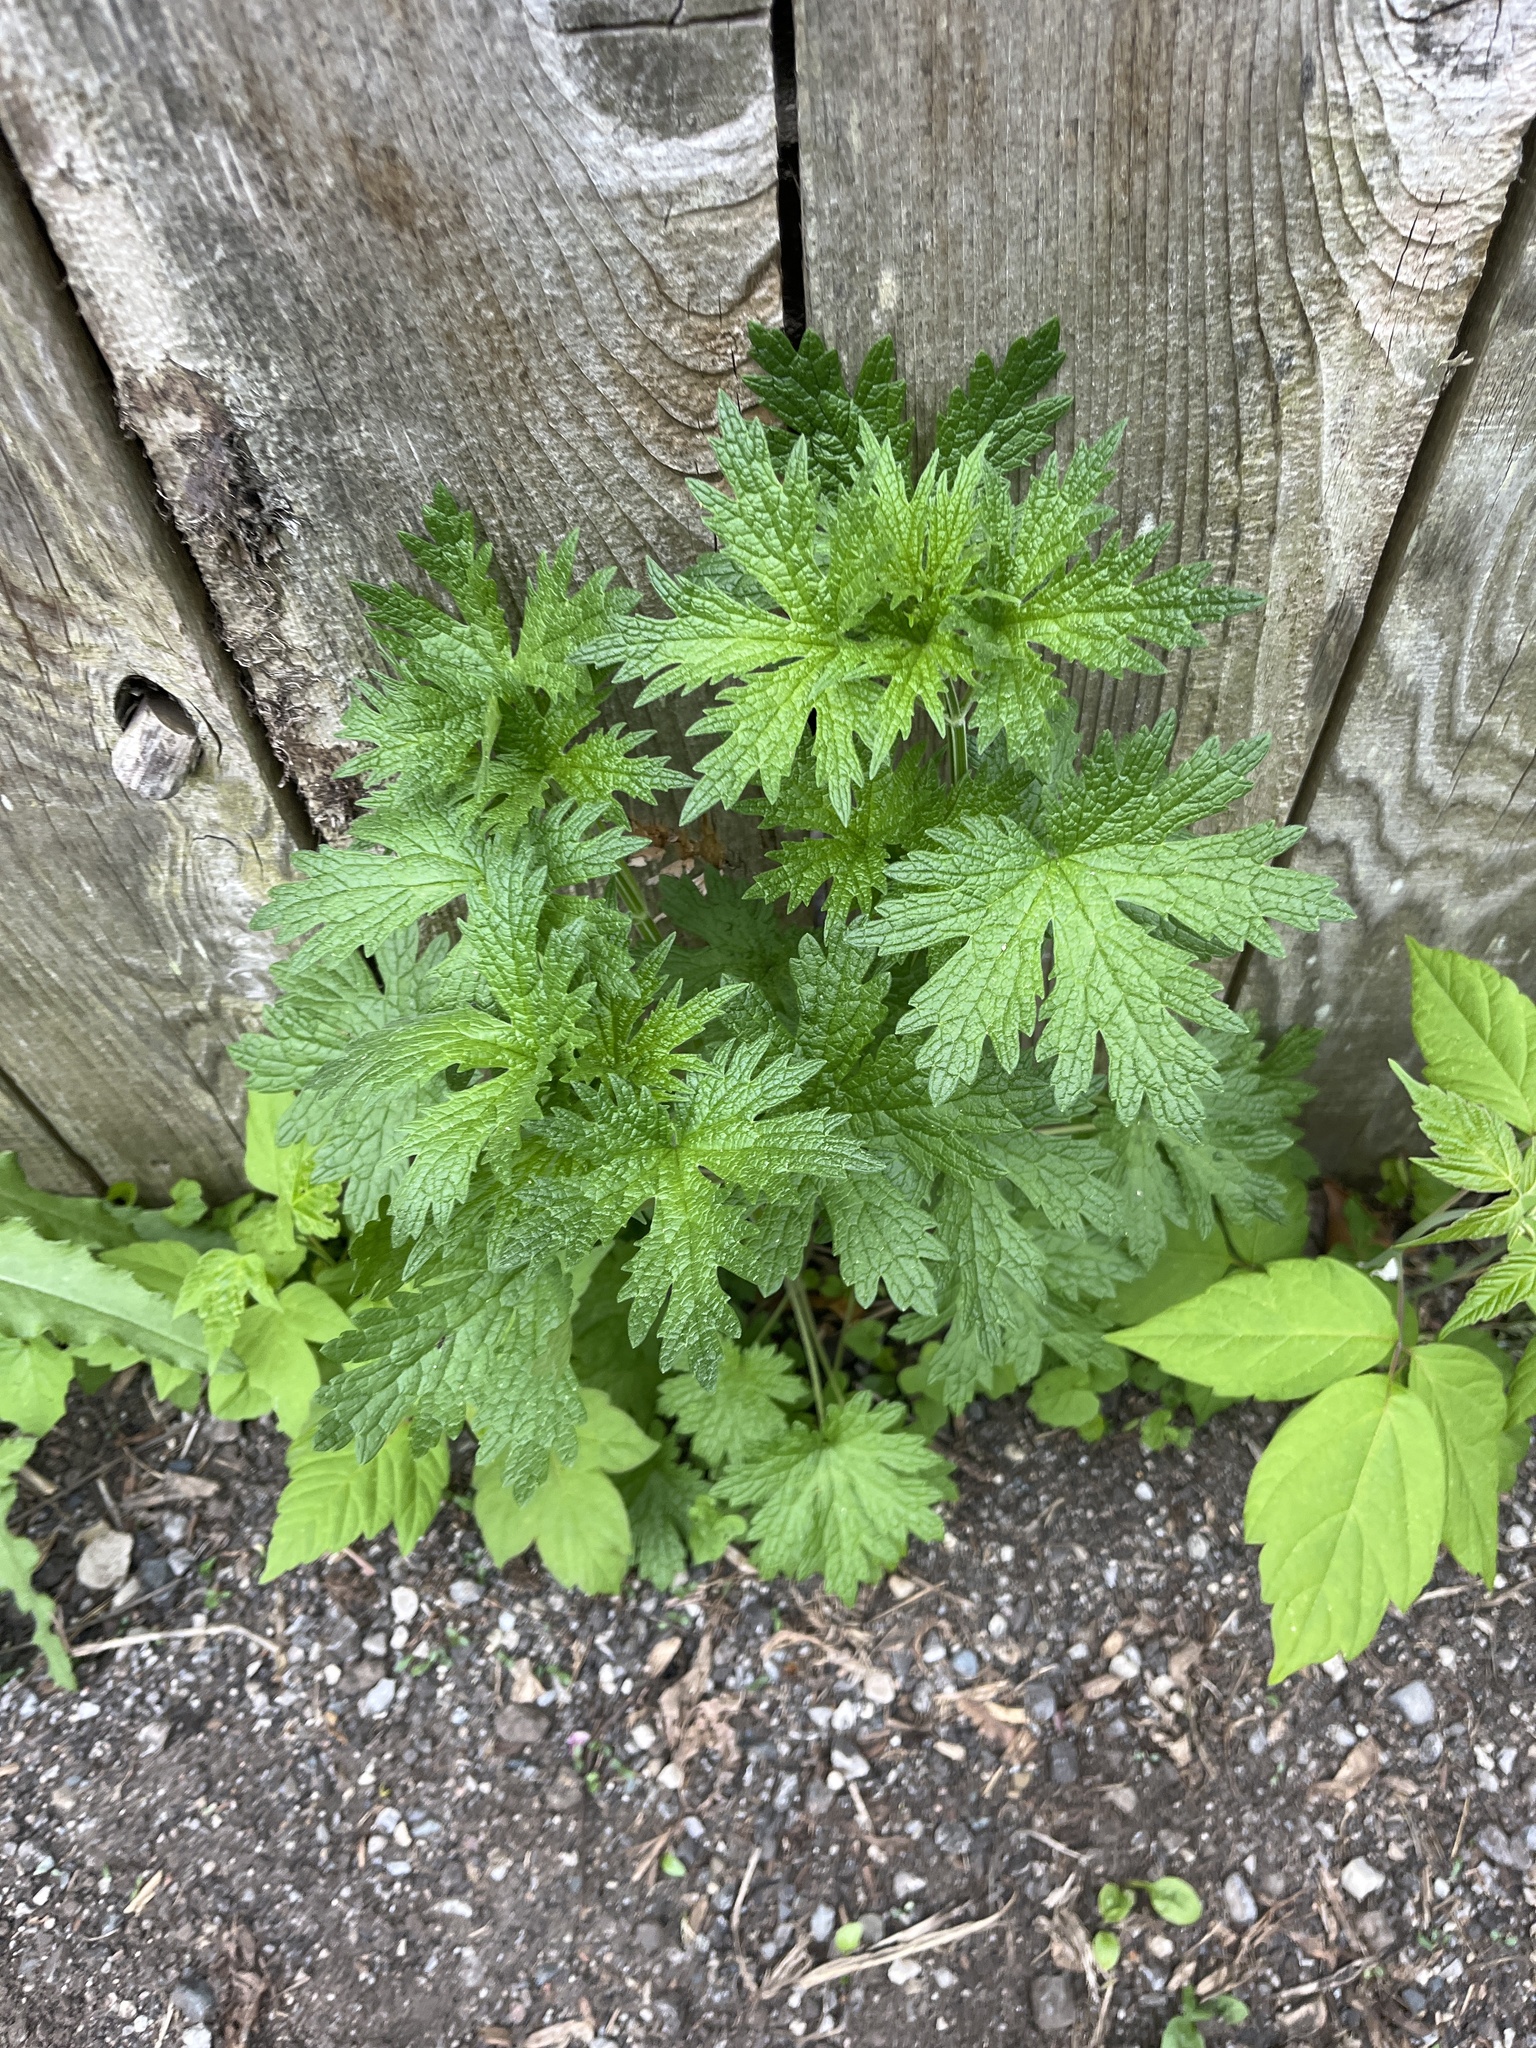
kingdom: Plantae
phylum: Tracheophyta
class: Magnoliopsida
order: Lamiales
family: Lamiaceae
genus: Leonurus
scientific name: Leonurus cardiaca
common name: Motherwort
